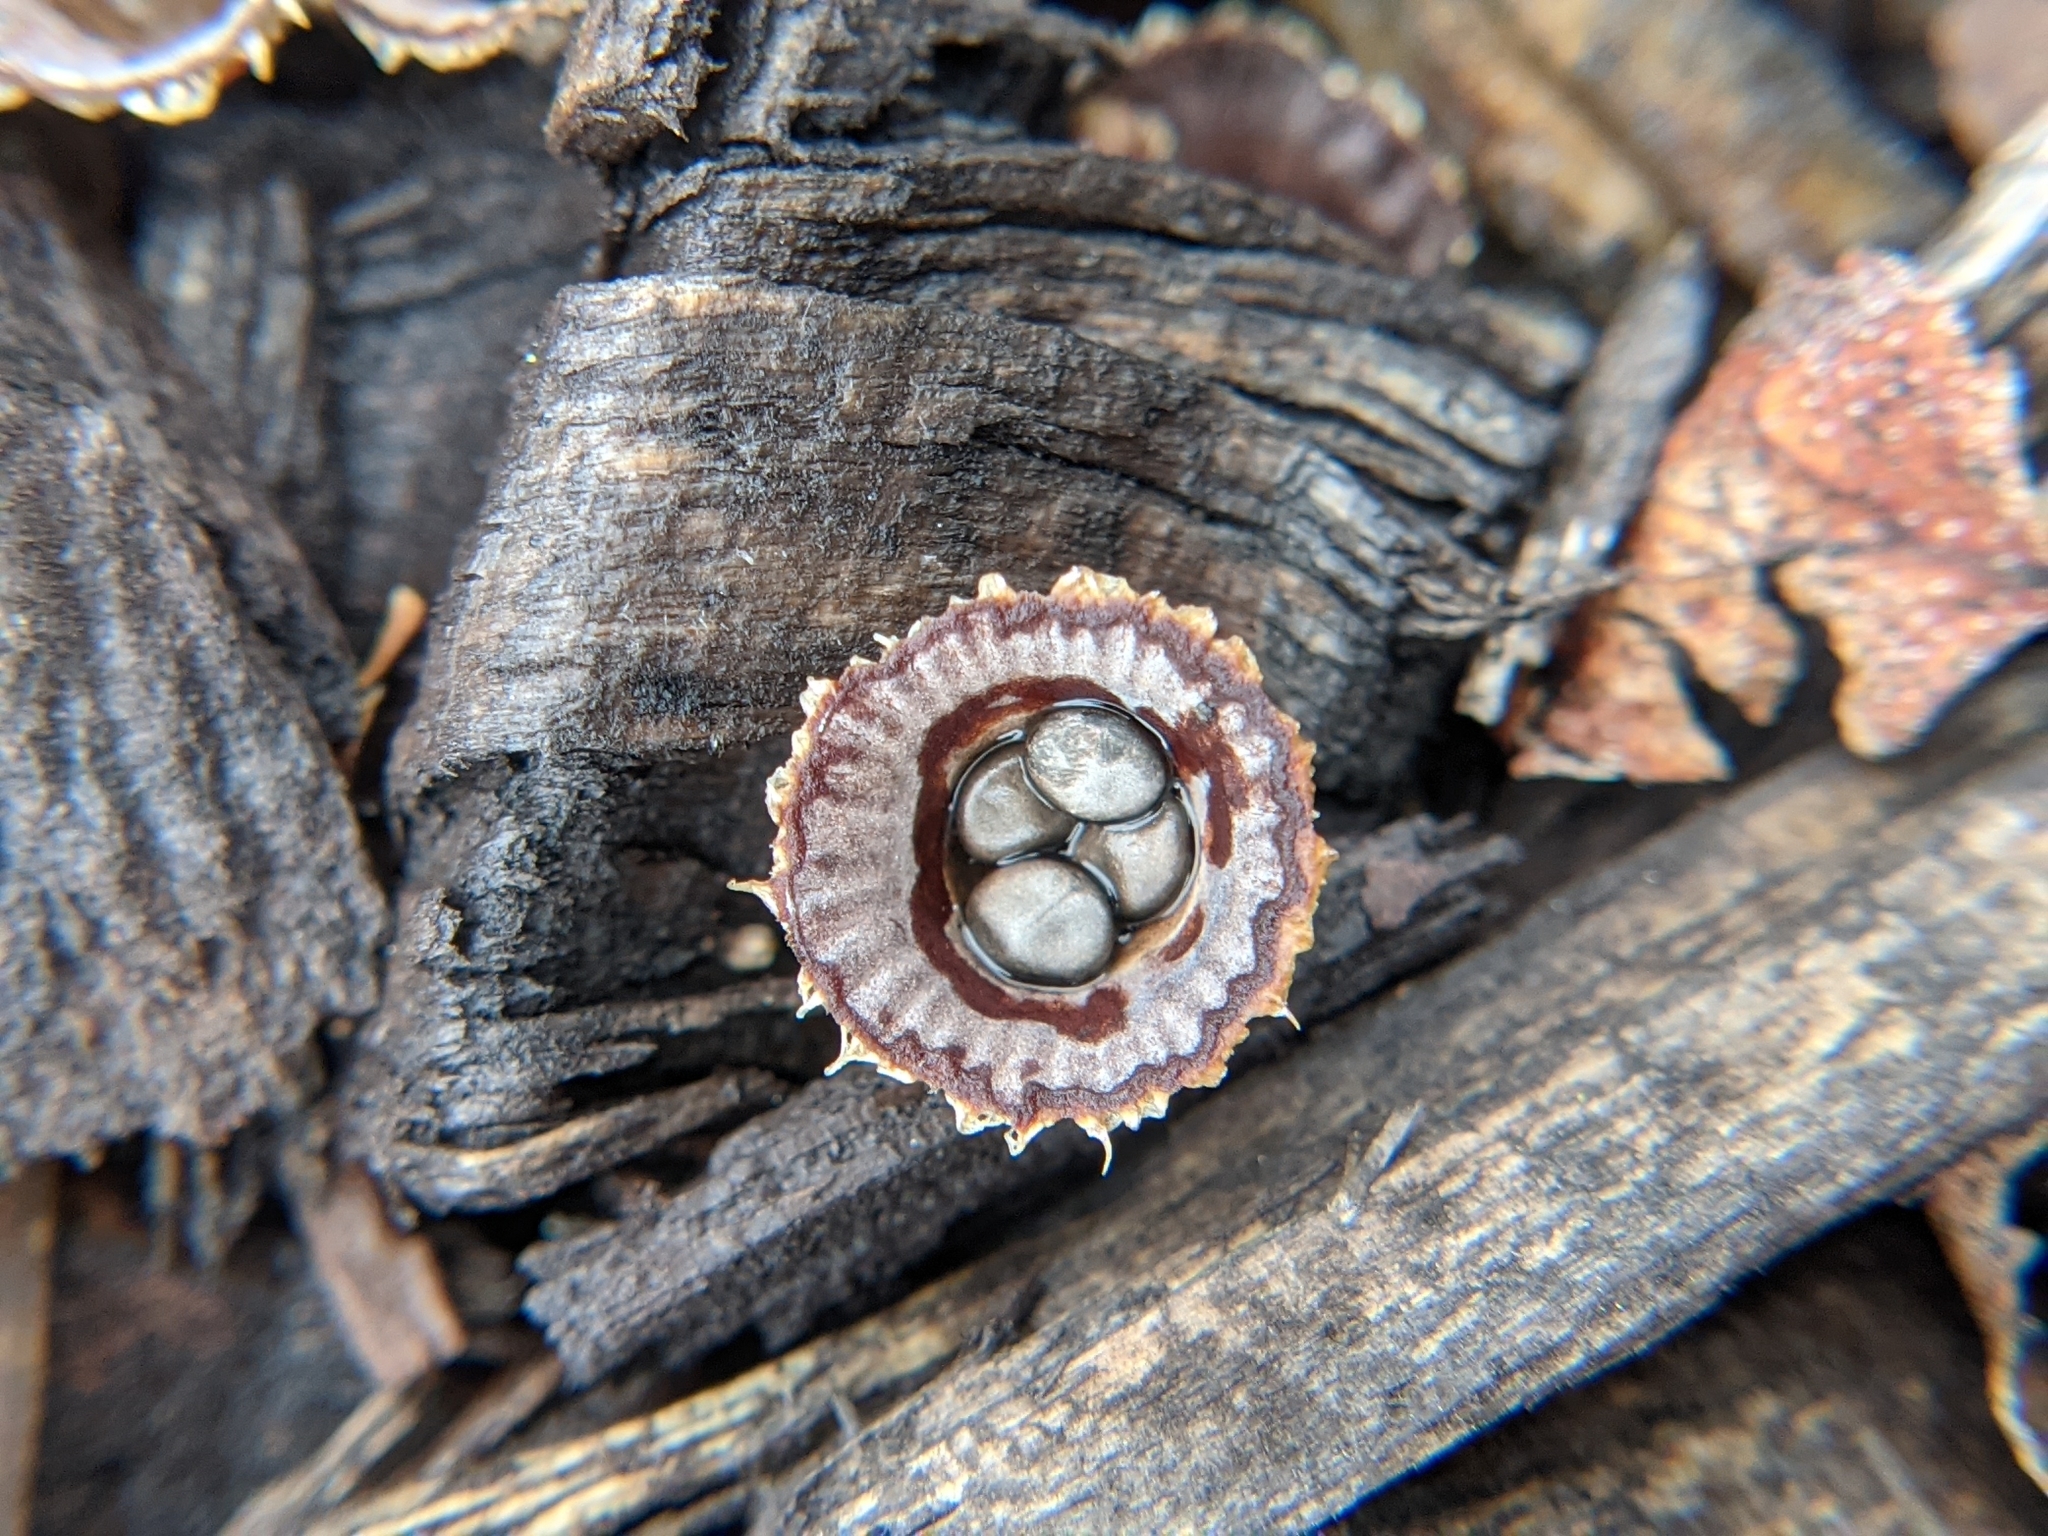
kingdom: Fungi
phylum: Basidiomycota
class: Agaricomycetes
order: Agaricales
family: Agaricaceae
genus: Cyathus
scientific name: Cyathus striatus
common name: Fluted bird's nest
